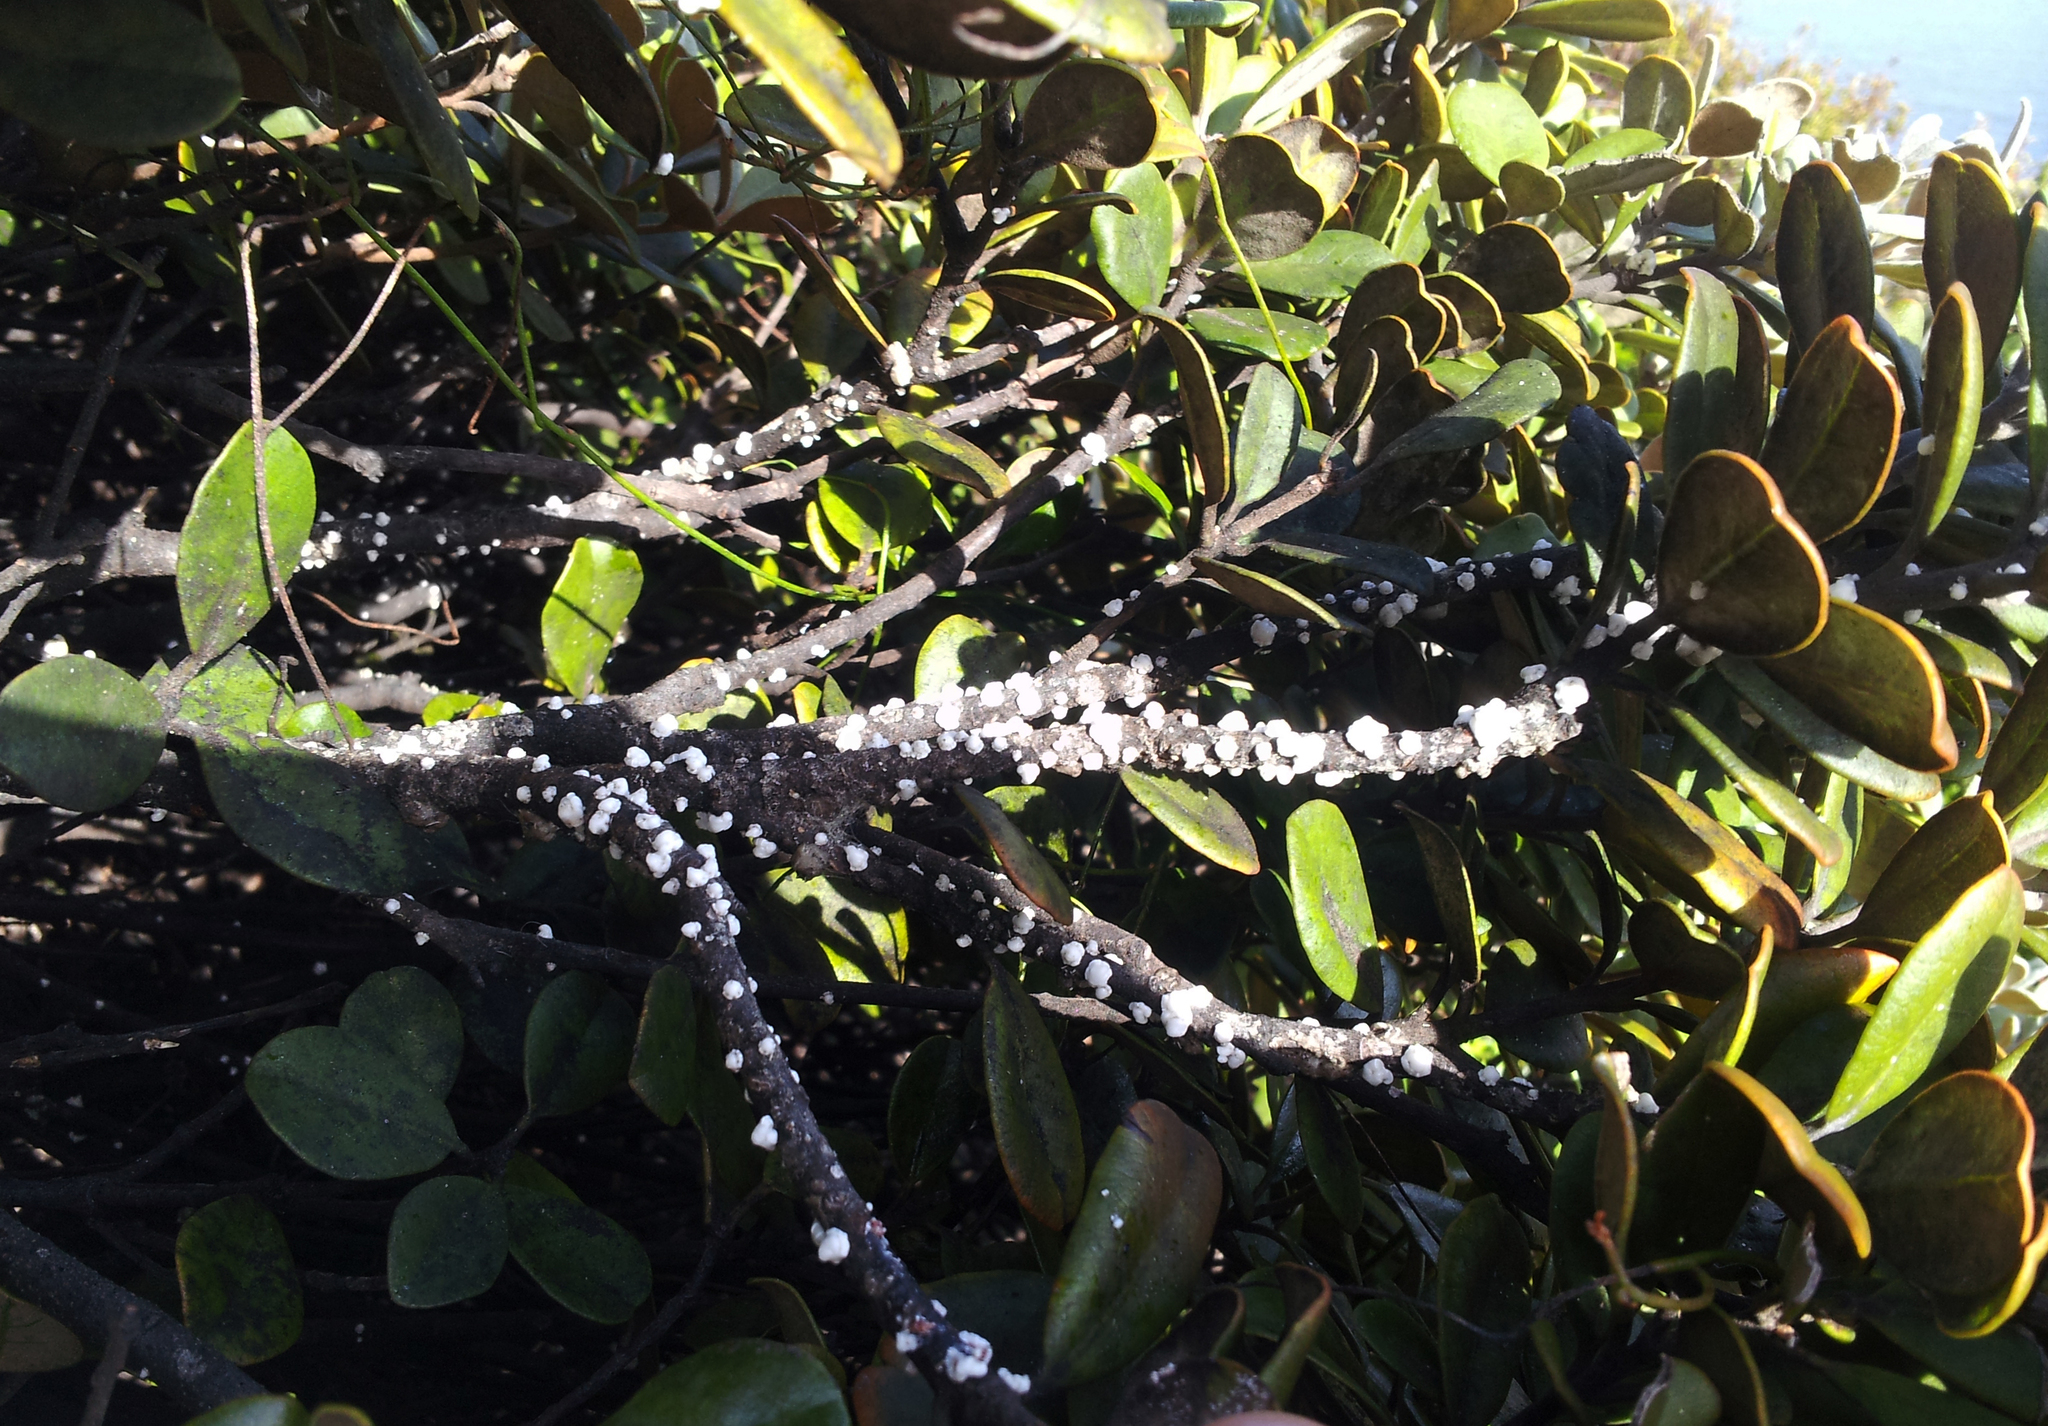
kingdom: Animalia
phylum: Arthropoda
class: Insecta
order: Hemiptera
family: Coccidae
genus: Ceroplastes
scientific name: Ceroplastes destructor
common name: Indian wax scale
